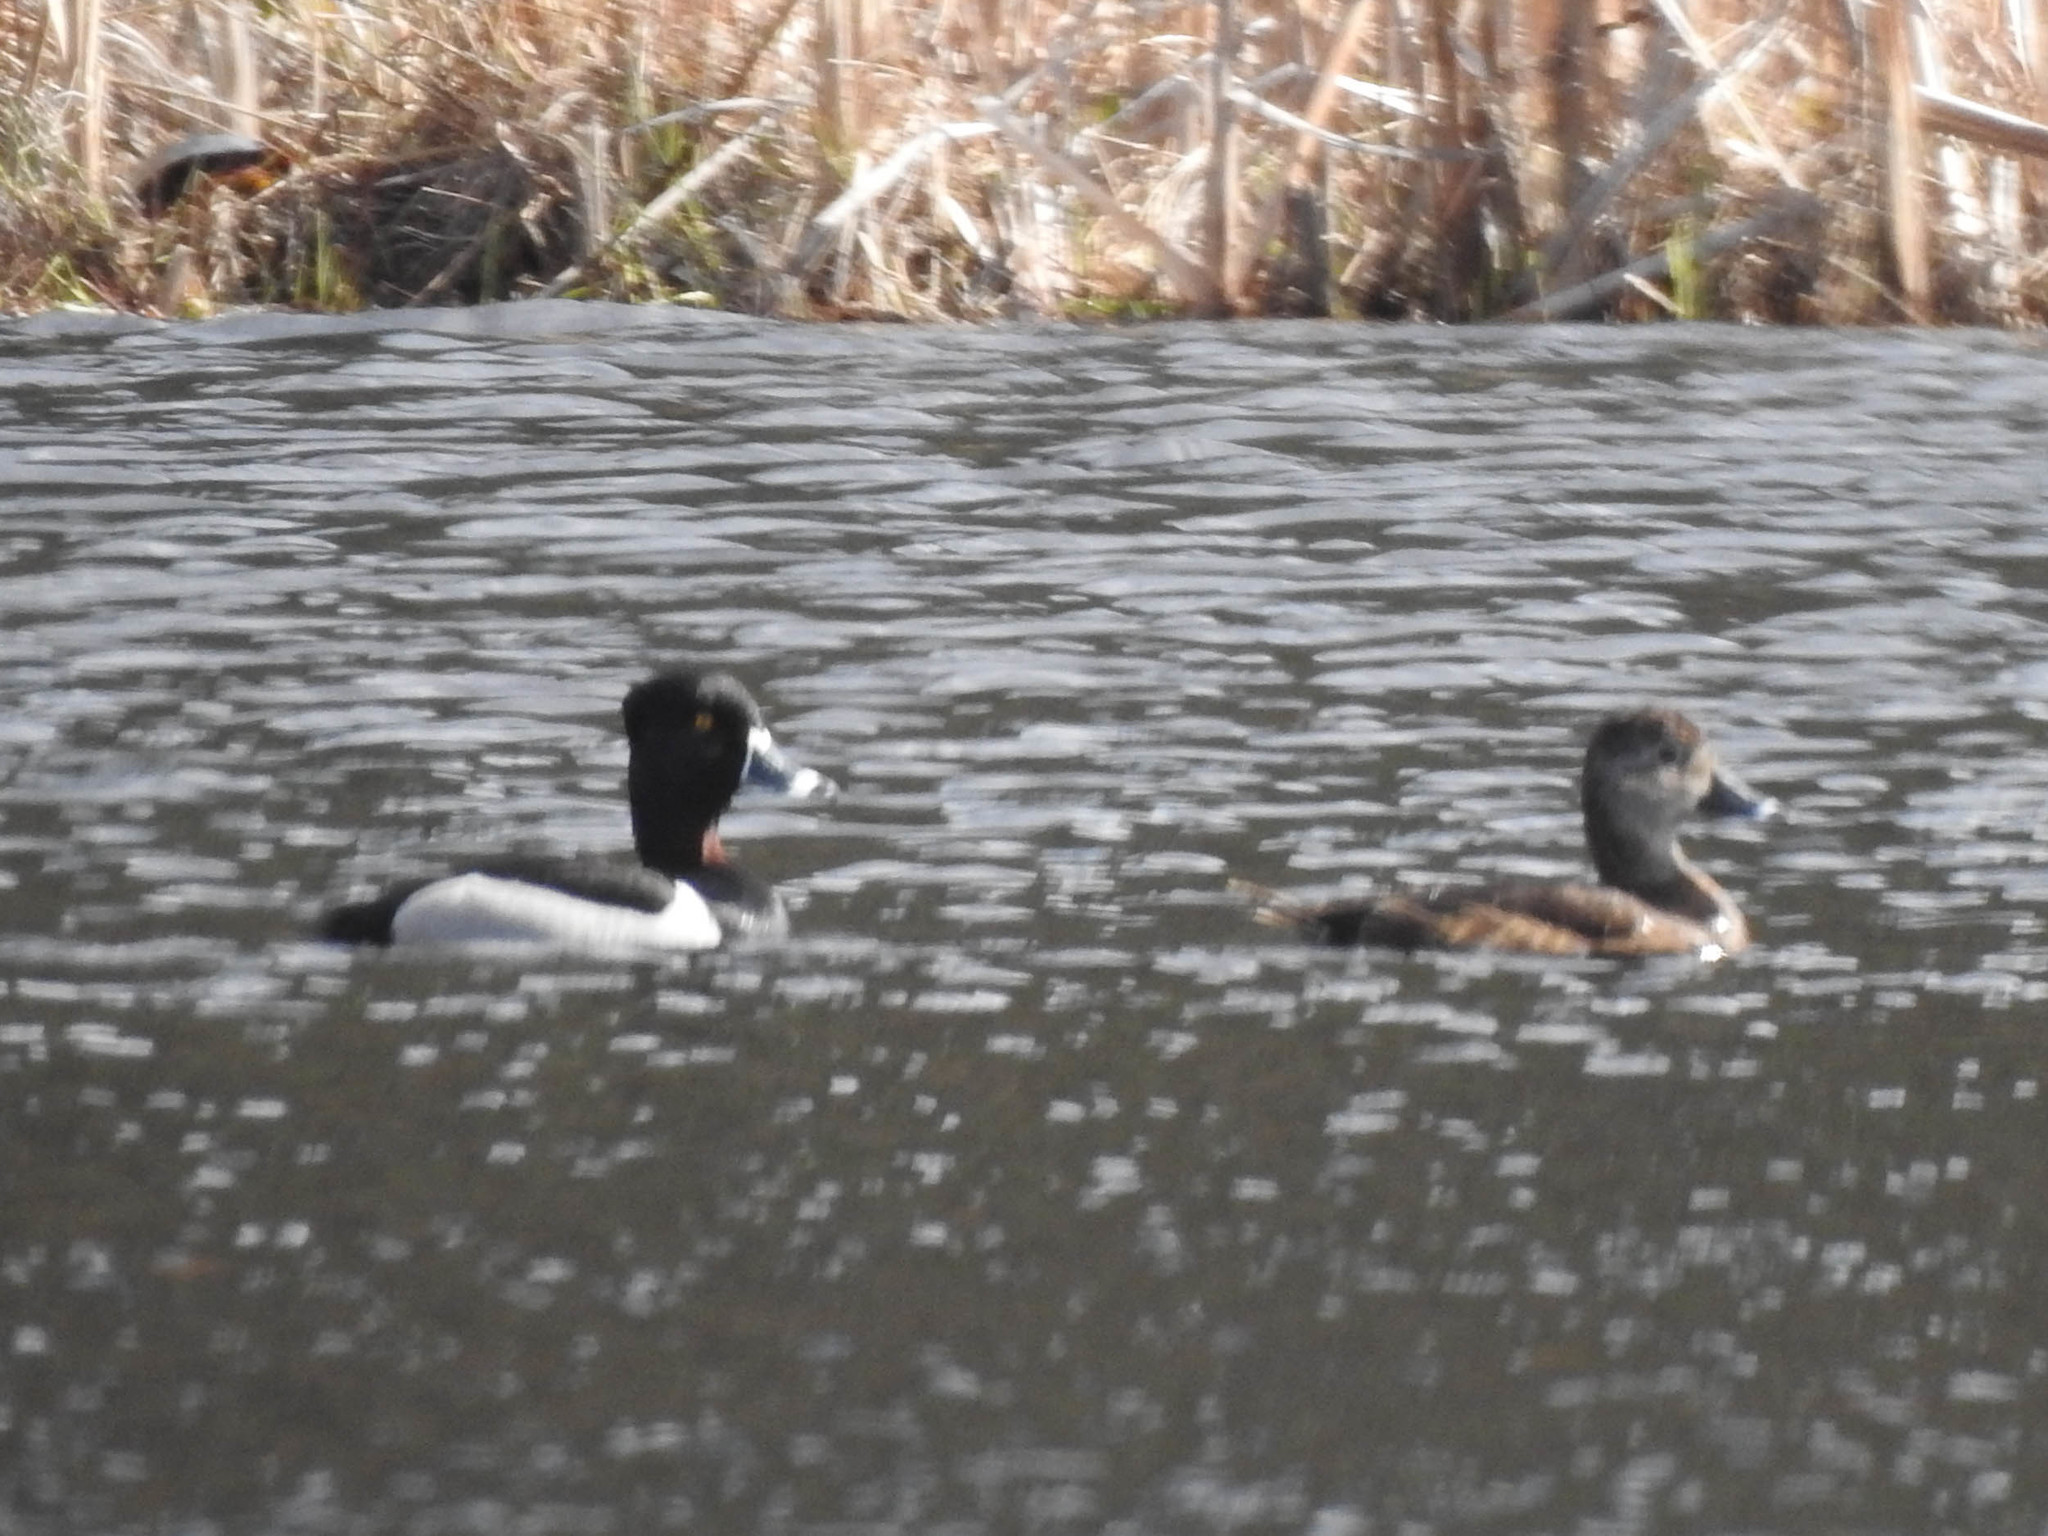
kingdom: Animalia
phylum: Chordata
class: Aves
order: Anseriformes
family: Anatidae
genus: Aythya
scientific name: Aythya collaris
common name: Ring-necked duck
